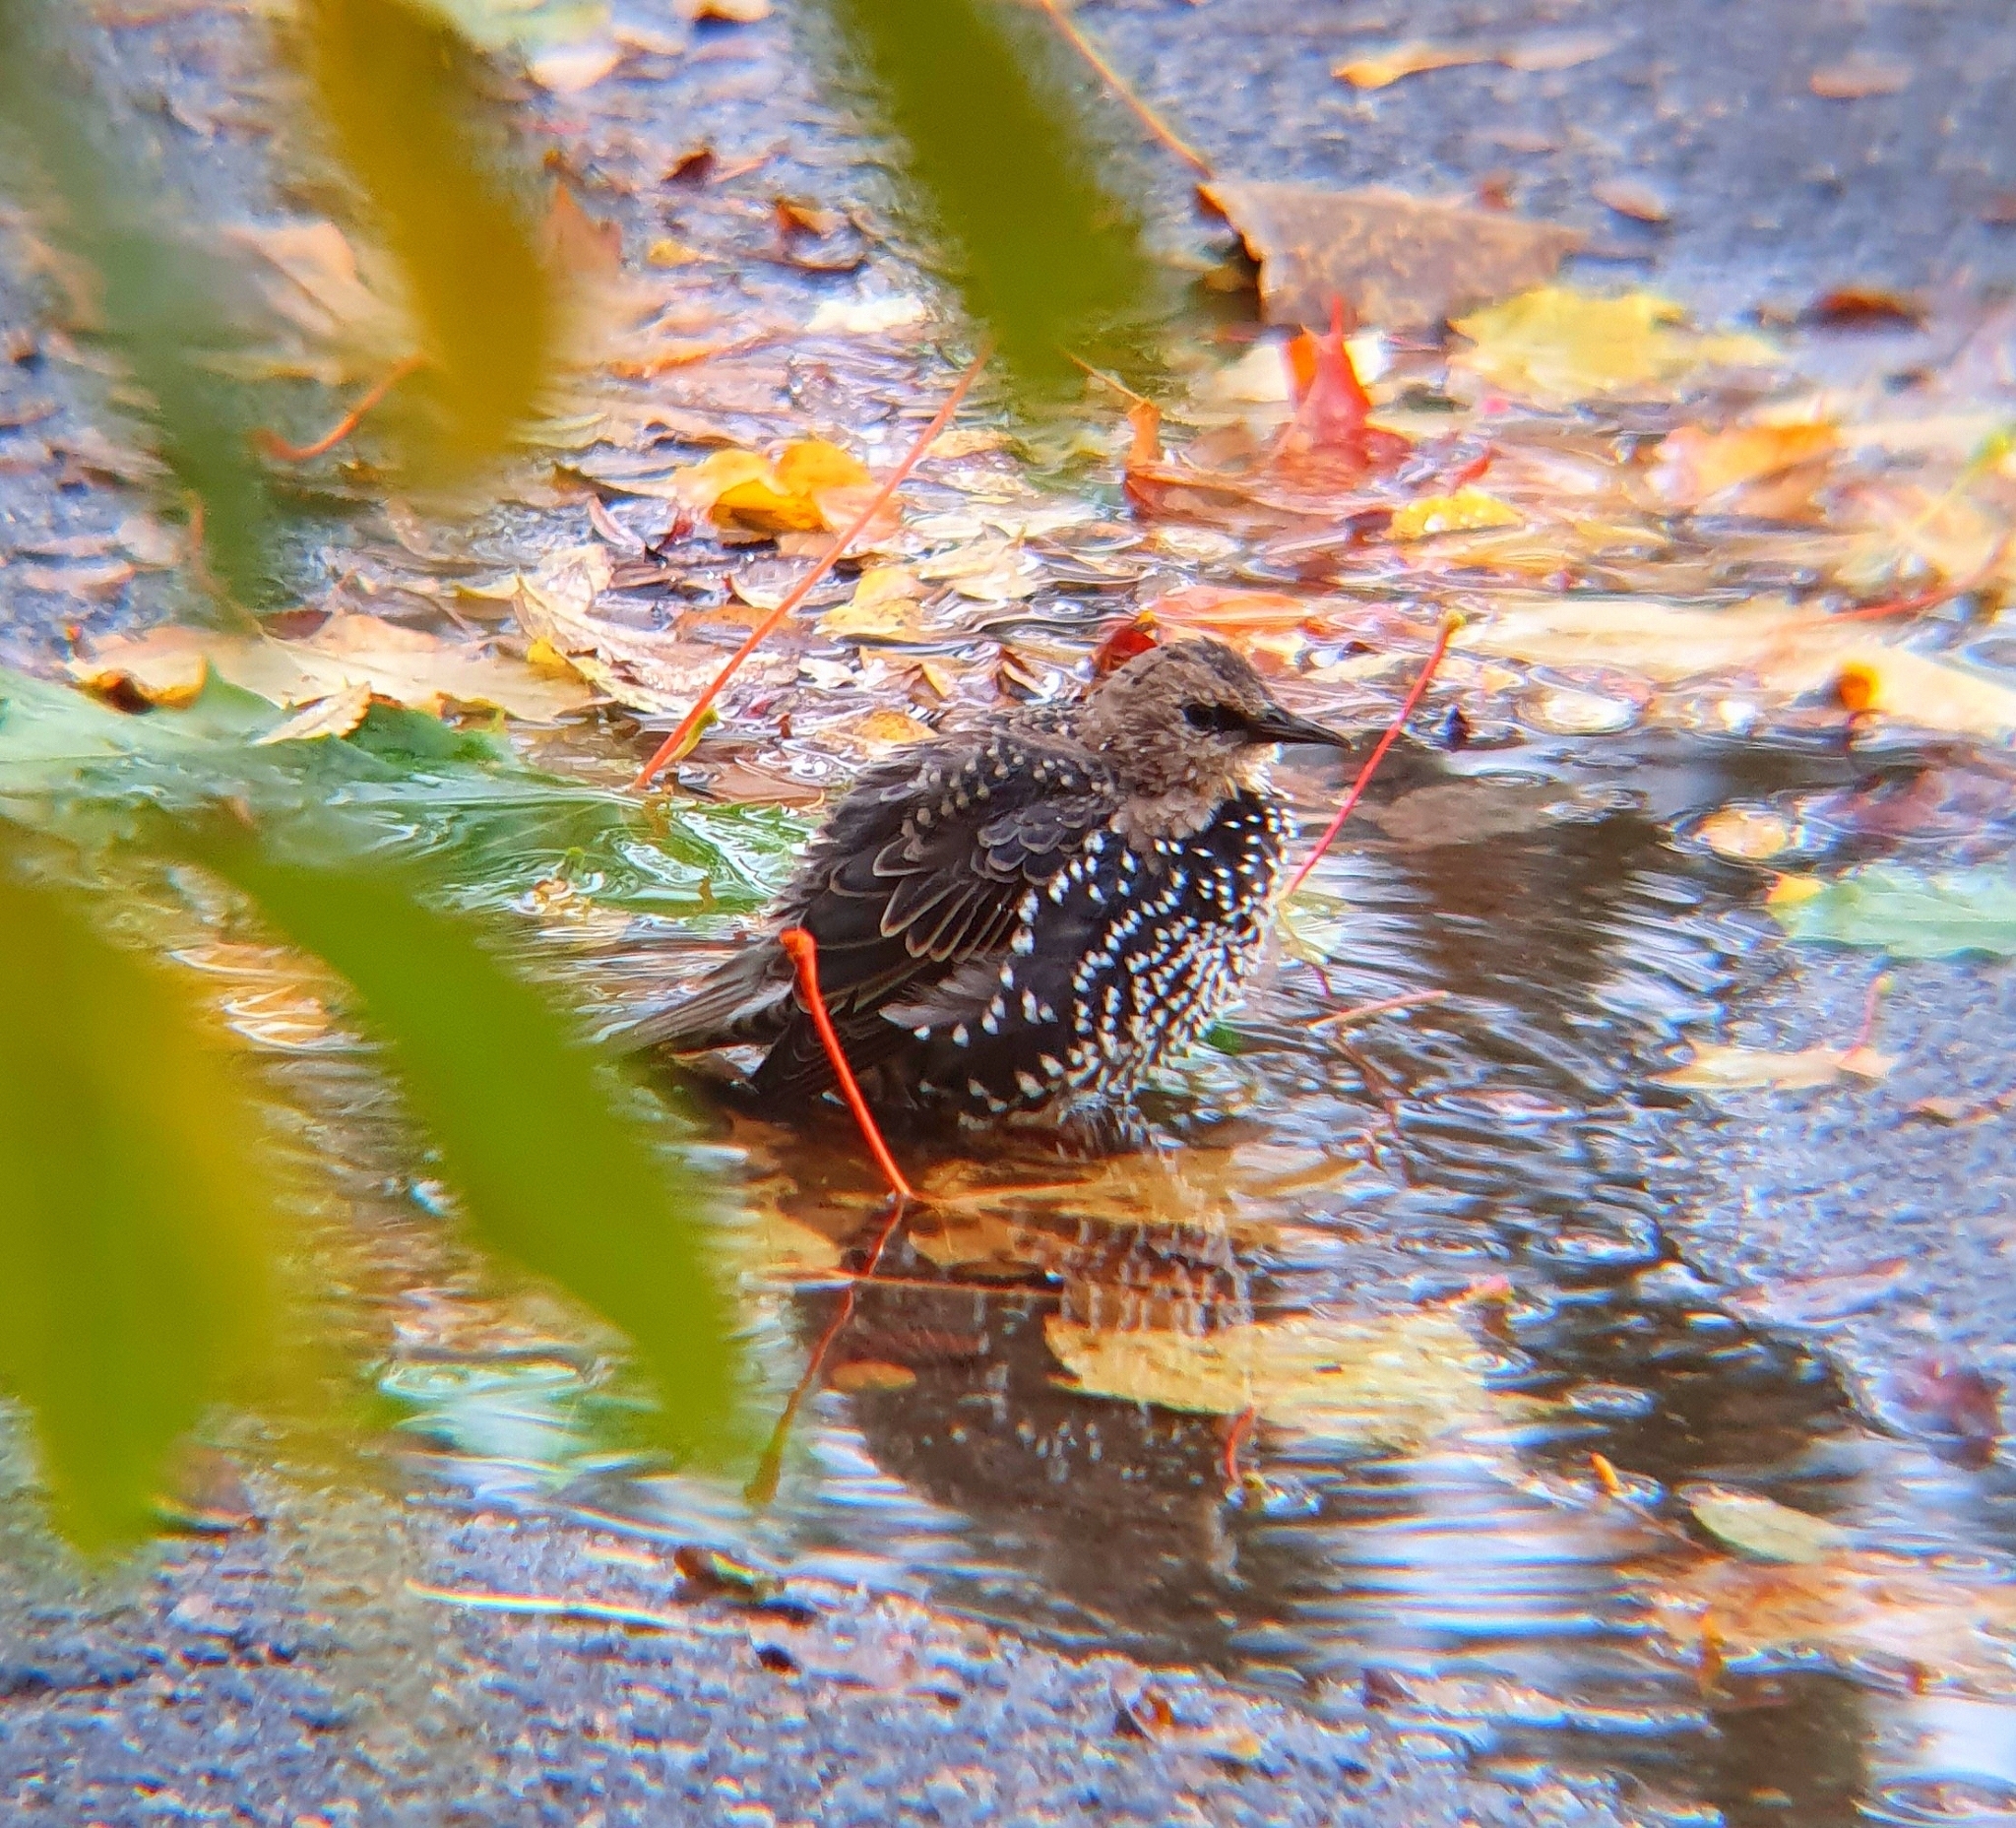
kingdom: Animalia
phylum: Chordata
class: Aves
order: Passeriformes
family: Sturnidae
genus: Sturnus
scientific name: Sturnus vulgaris
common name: Common starling
